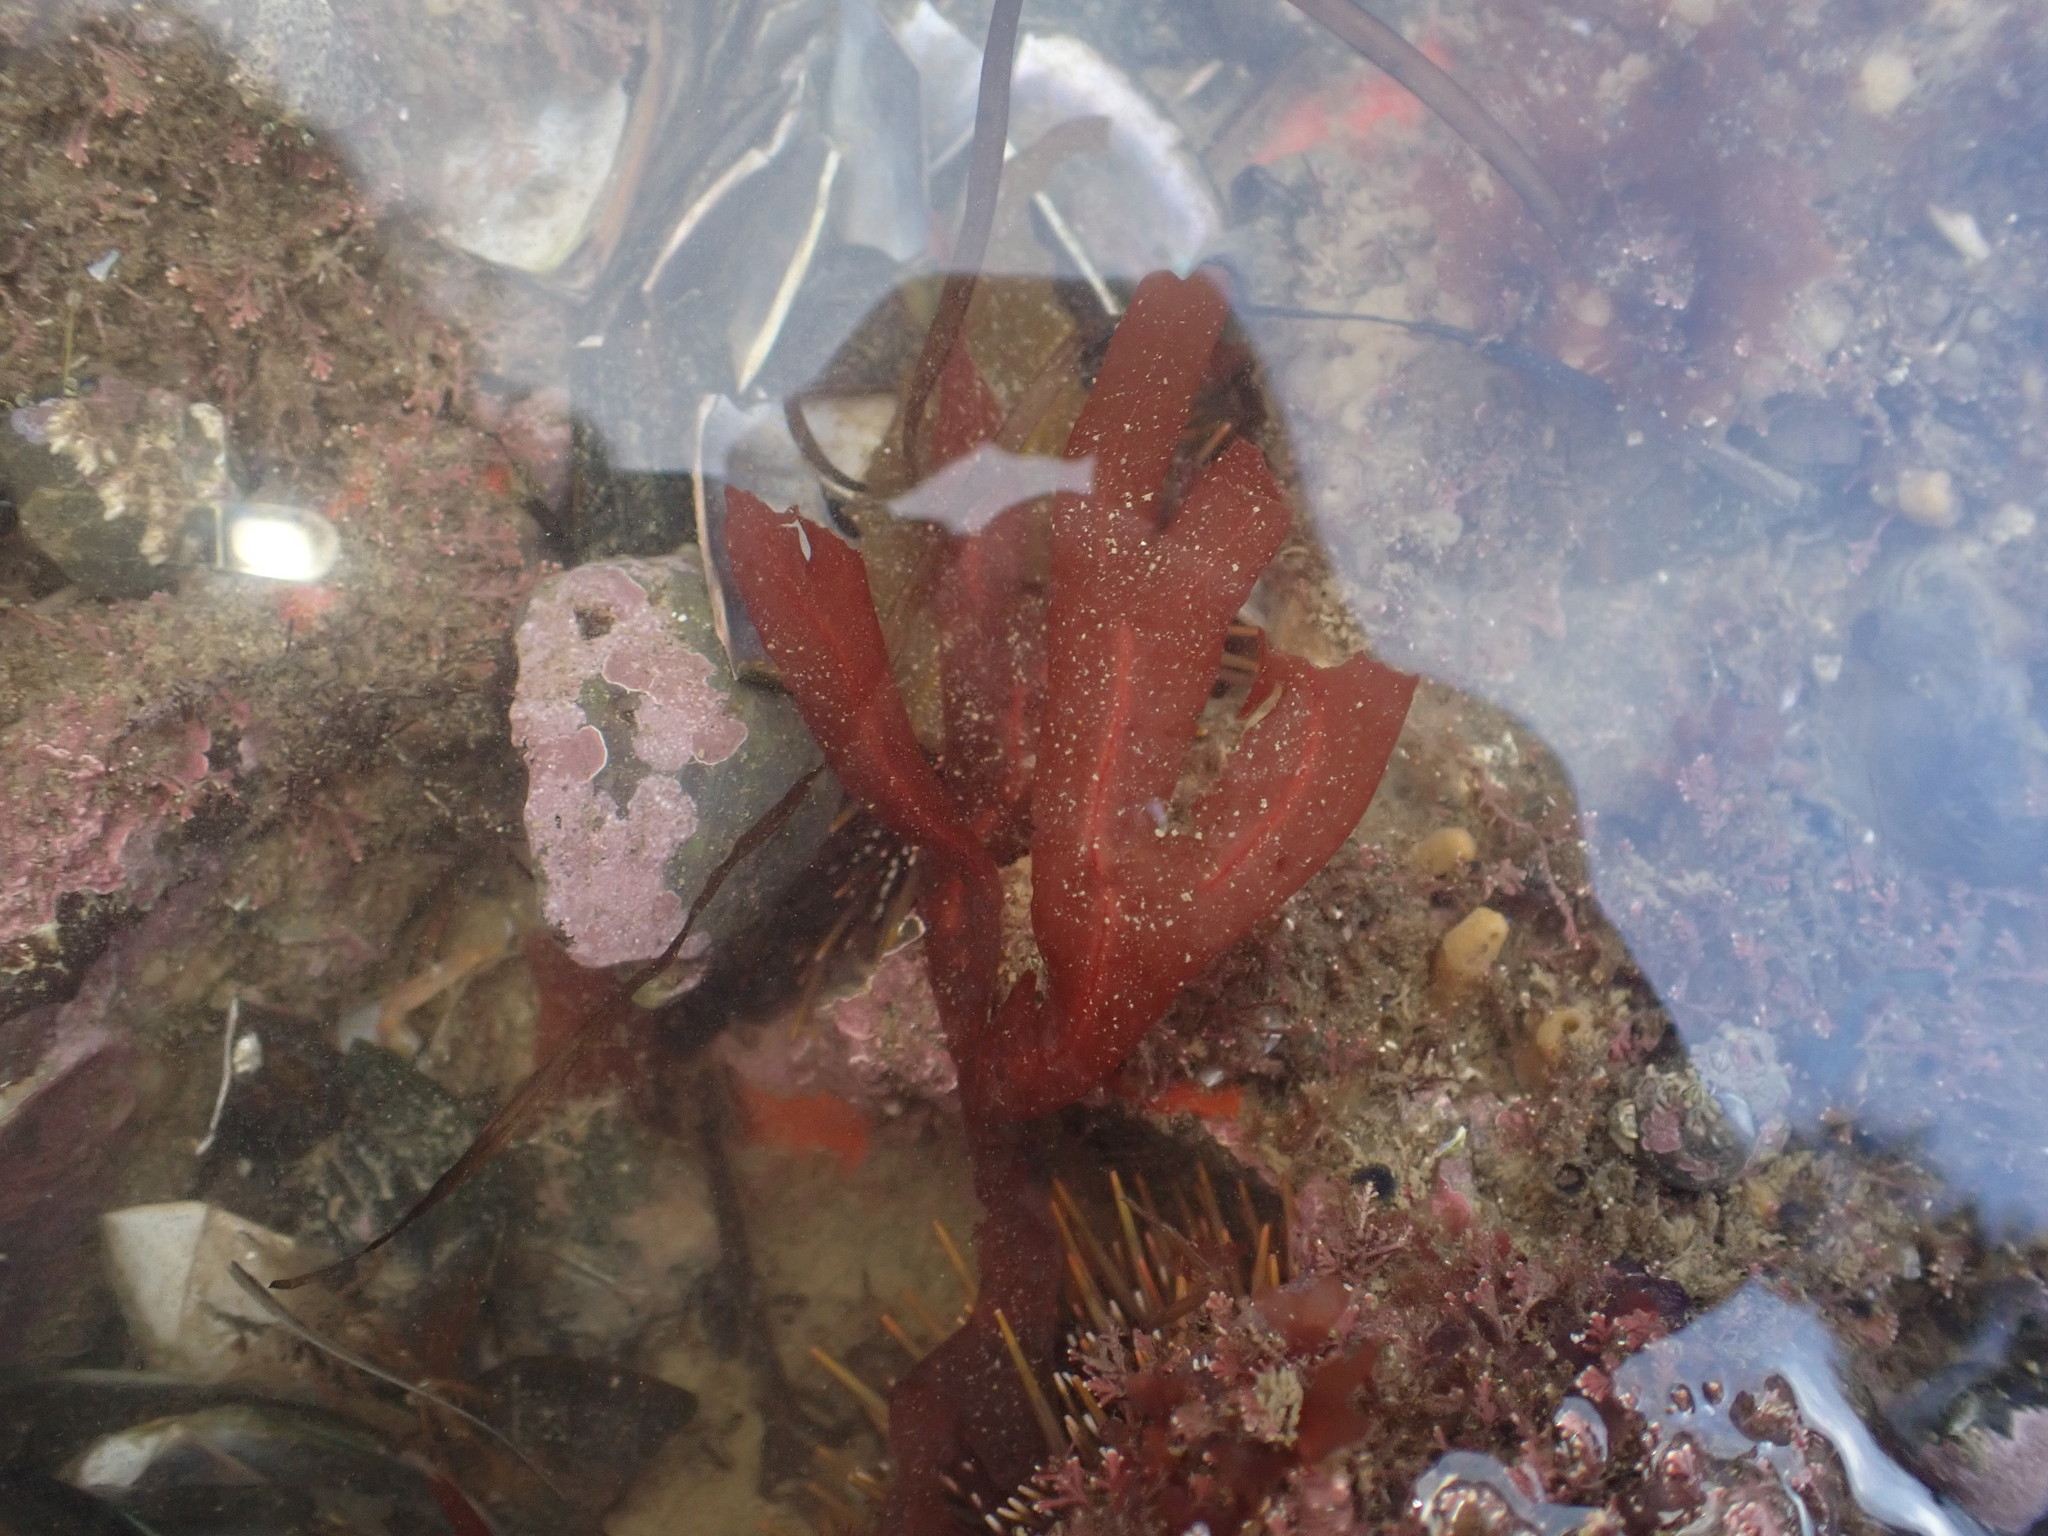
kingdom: Plantae
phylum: Rhodophyta
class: Florideophyceae
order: Gigartinales
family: Phyllophoraceae
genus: Stenogramma
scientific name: Stenogramma interruptum
